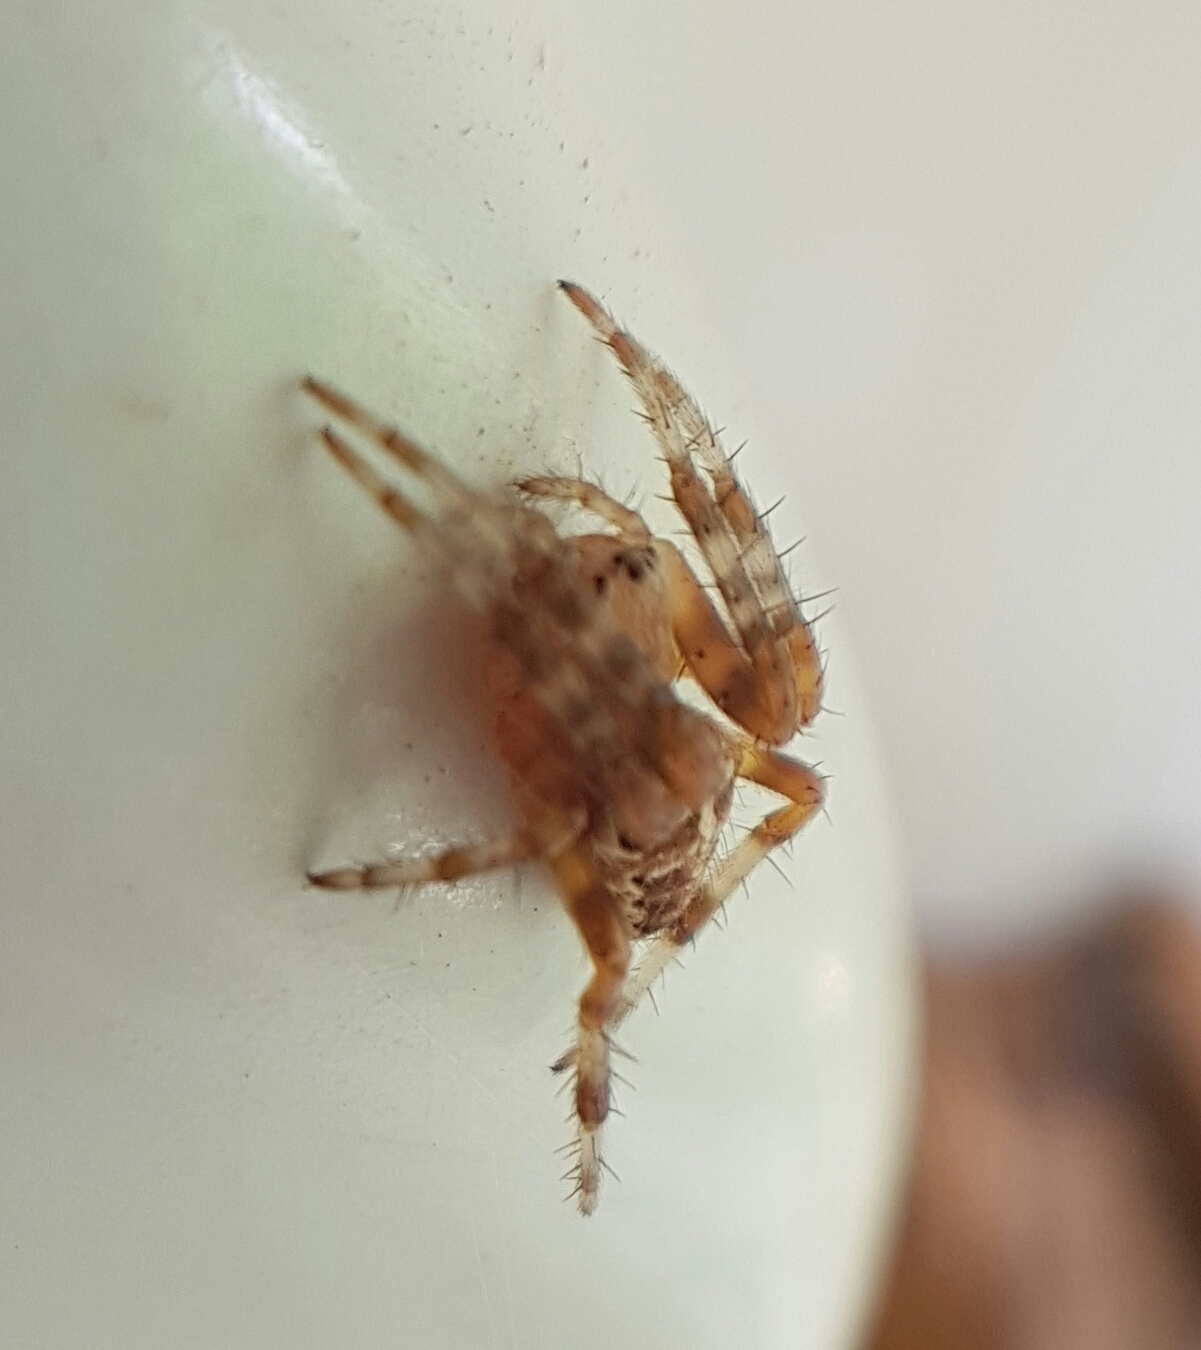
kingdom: Animalia
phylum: Arthropoda
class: Arachnida
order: Araneae
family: Araneidae
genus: Araneus
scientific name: Araneus diadematus
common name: Cross orbweaver
